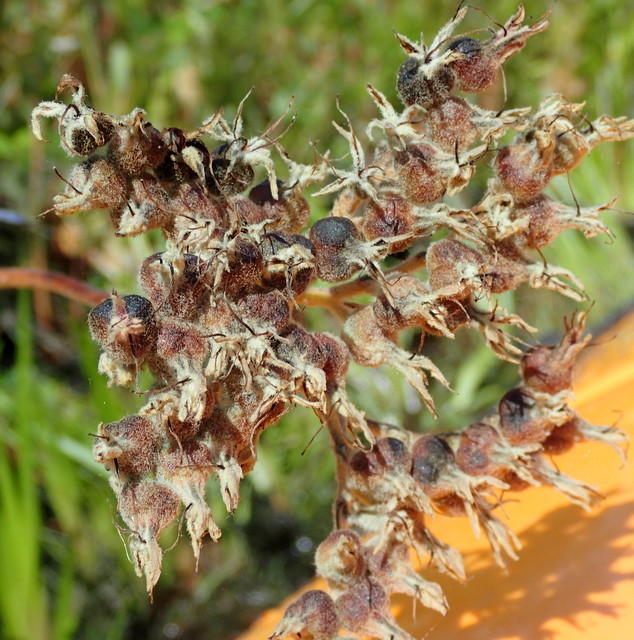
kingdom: Plantae
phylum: Tracheophyta
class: Liliopsida
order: Commelinales
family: Haemodoraceae
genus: Lachnanthes
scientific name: Lachnanthes caroliana
